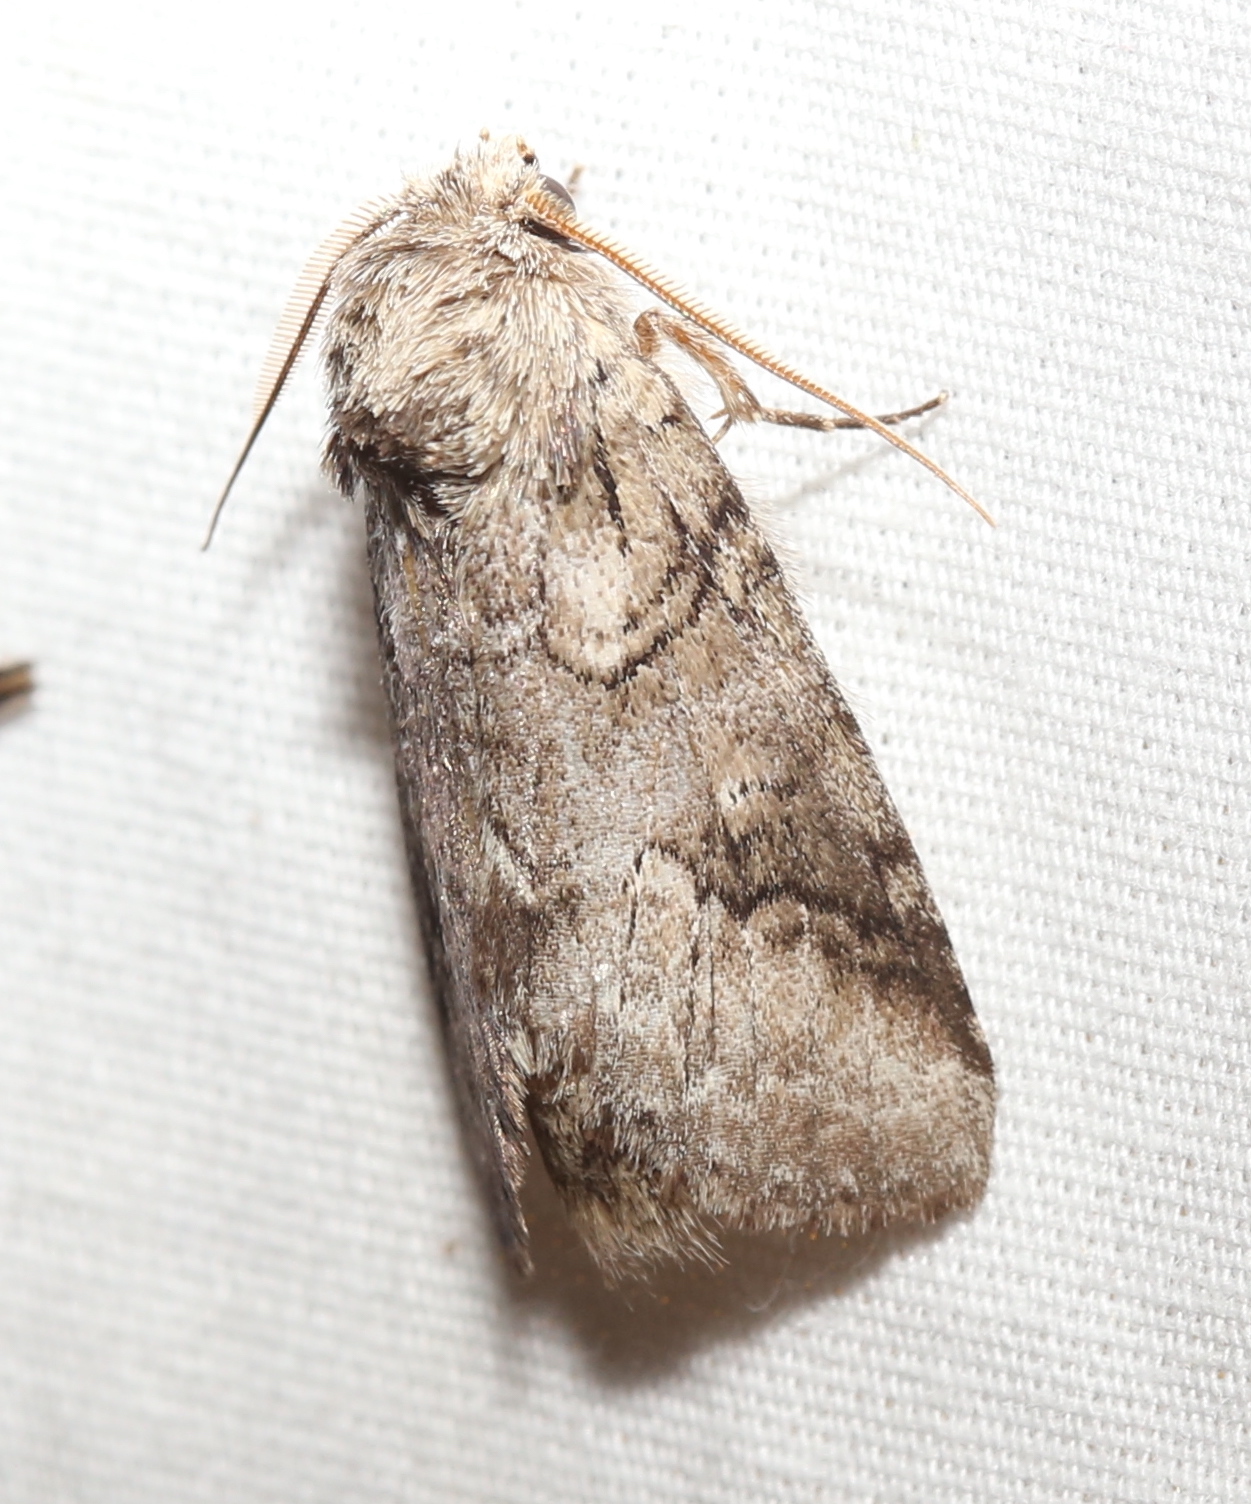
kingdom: Animalia
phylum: Arthropoda
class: Insecta
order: Lepidoptera
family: Notodontidae
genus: Lochmaeus
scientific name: Lochmaeus bilineata
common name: Double-lined prominent
